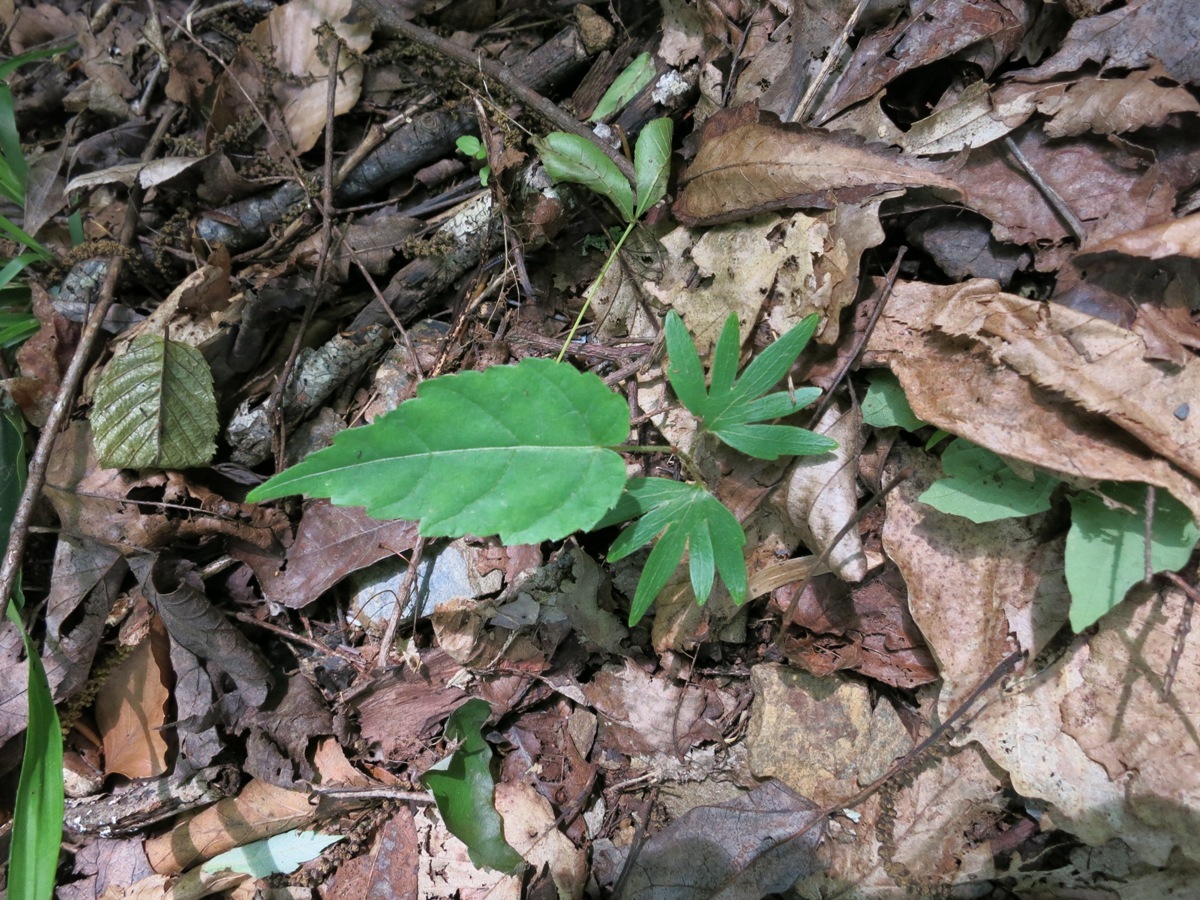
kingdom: Plantae
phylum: Tracheophyta
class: Magnoliopsida
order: Malvales
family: Malvaceae
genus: Tilia
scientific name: Tilia americana
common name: Basswood
